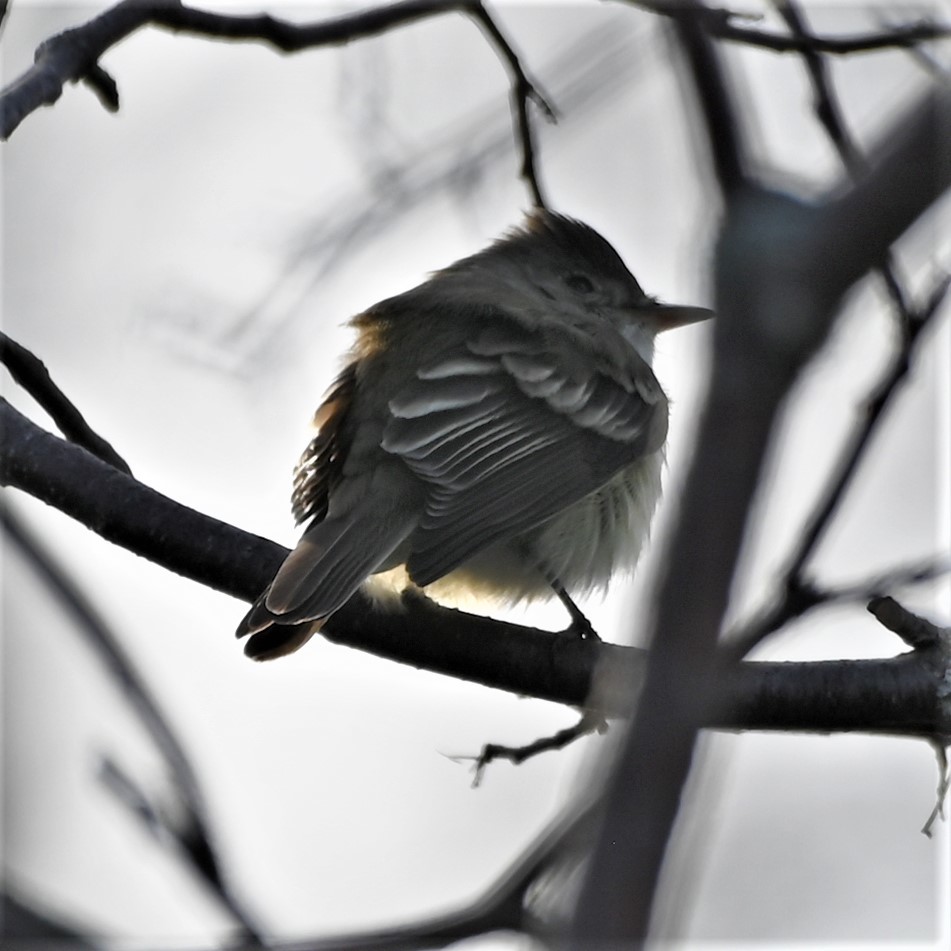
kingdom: Animalia
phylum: Chordata
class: Aves
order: Passeriformes
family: Tyrannidae
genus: Empidonax
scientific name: Empidonax virescens
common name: Acadian flycatcher
